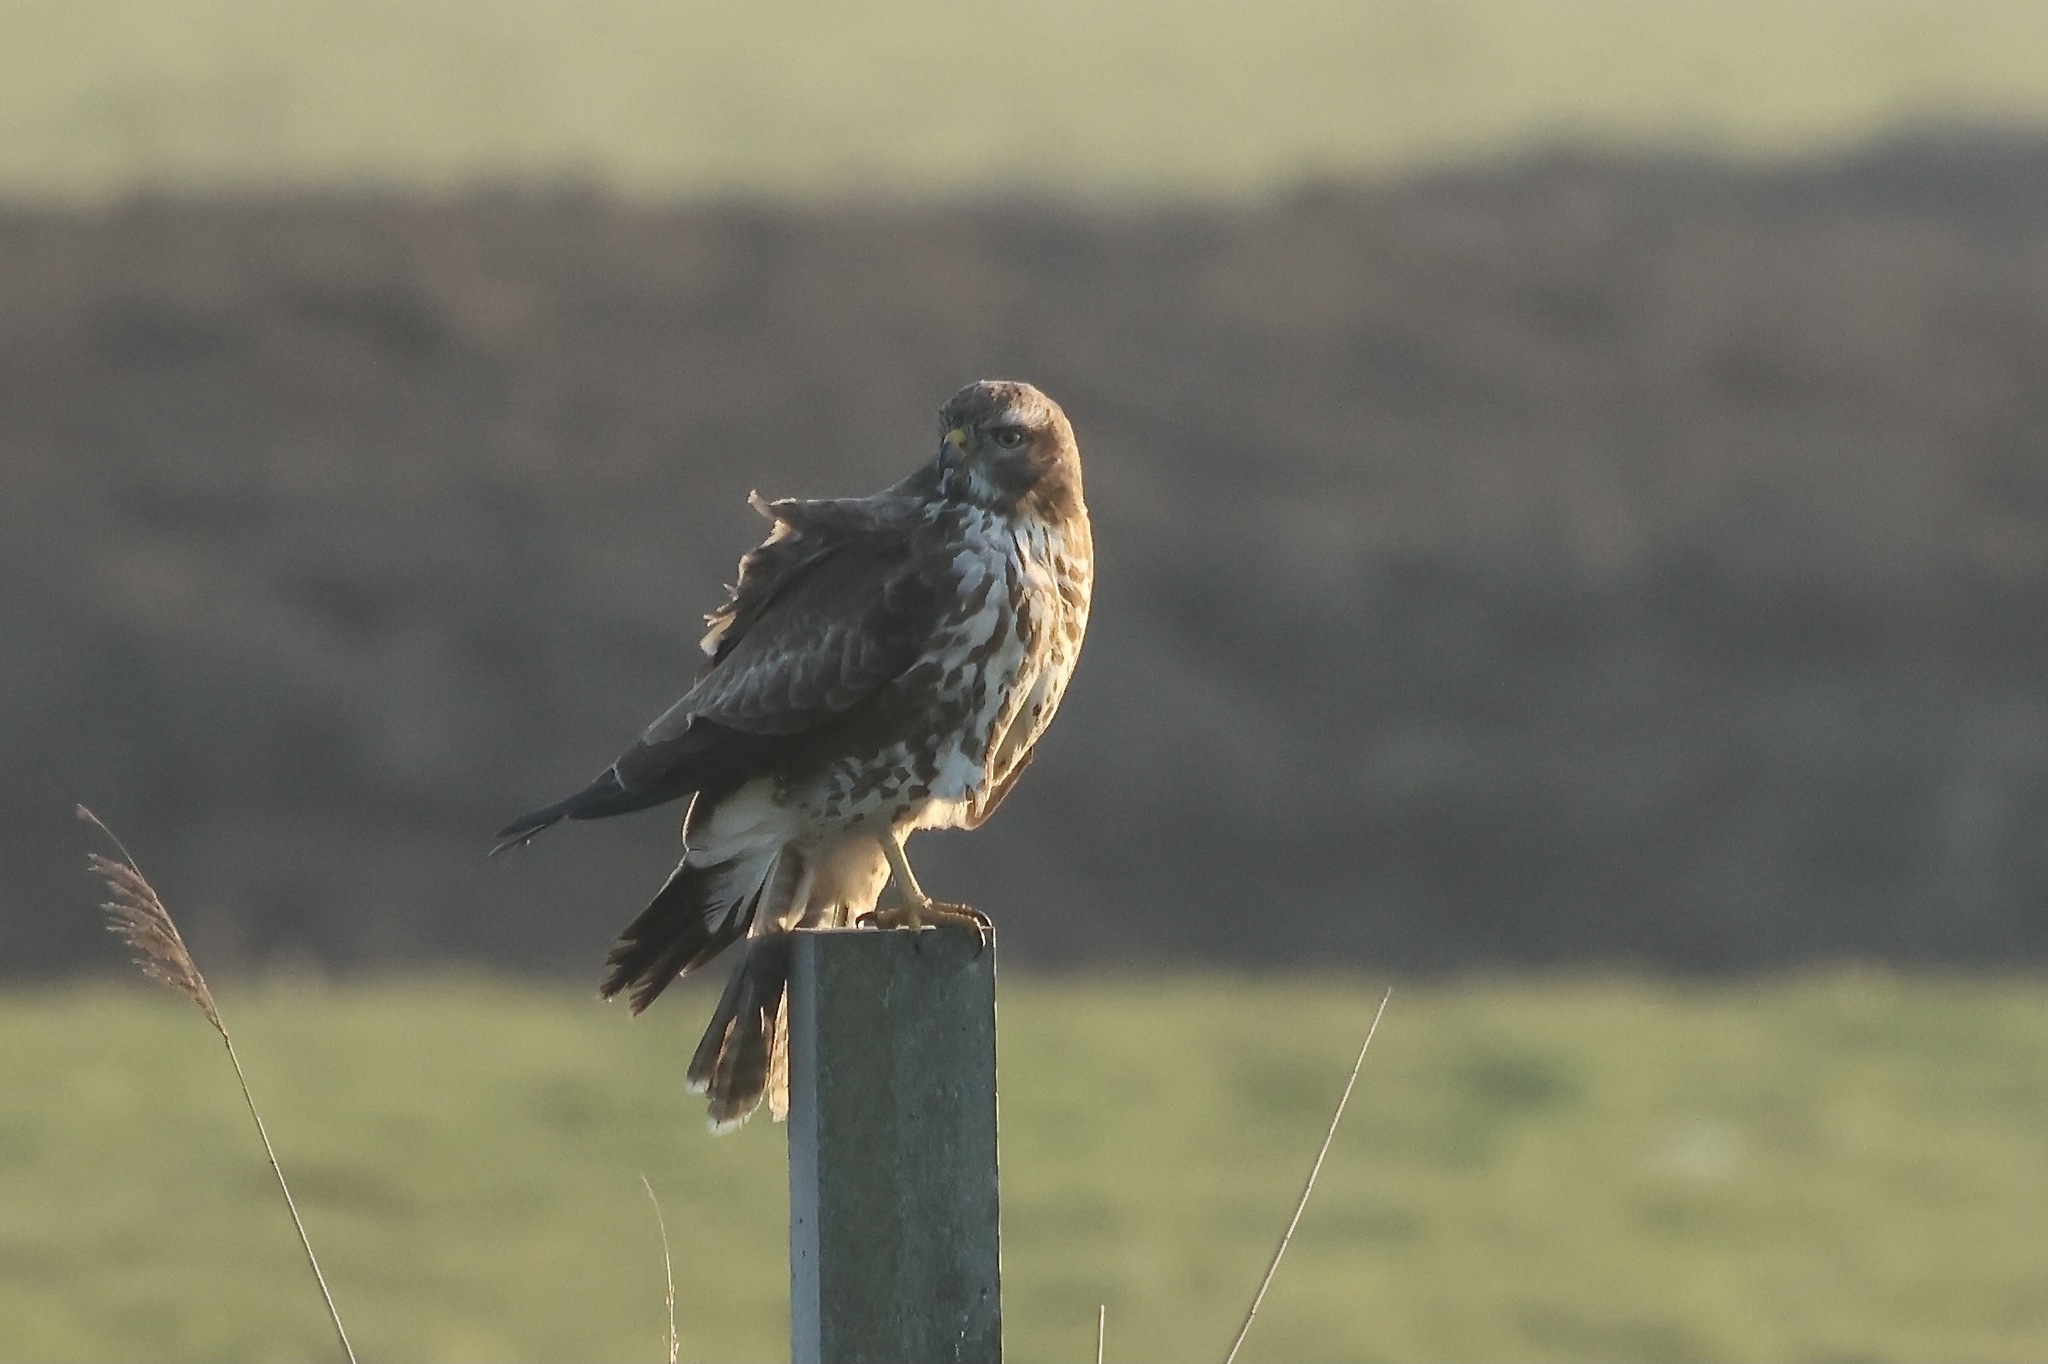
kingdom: Animalia
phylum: Chordata
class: Aves
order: Accipitriformes
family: Accipitridae
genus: Buteo
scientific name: Buteo buteo
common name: Common buzzard
